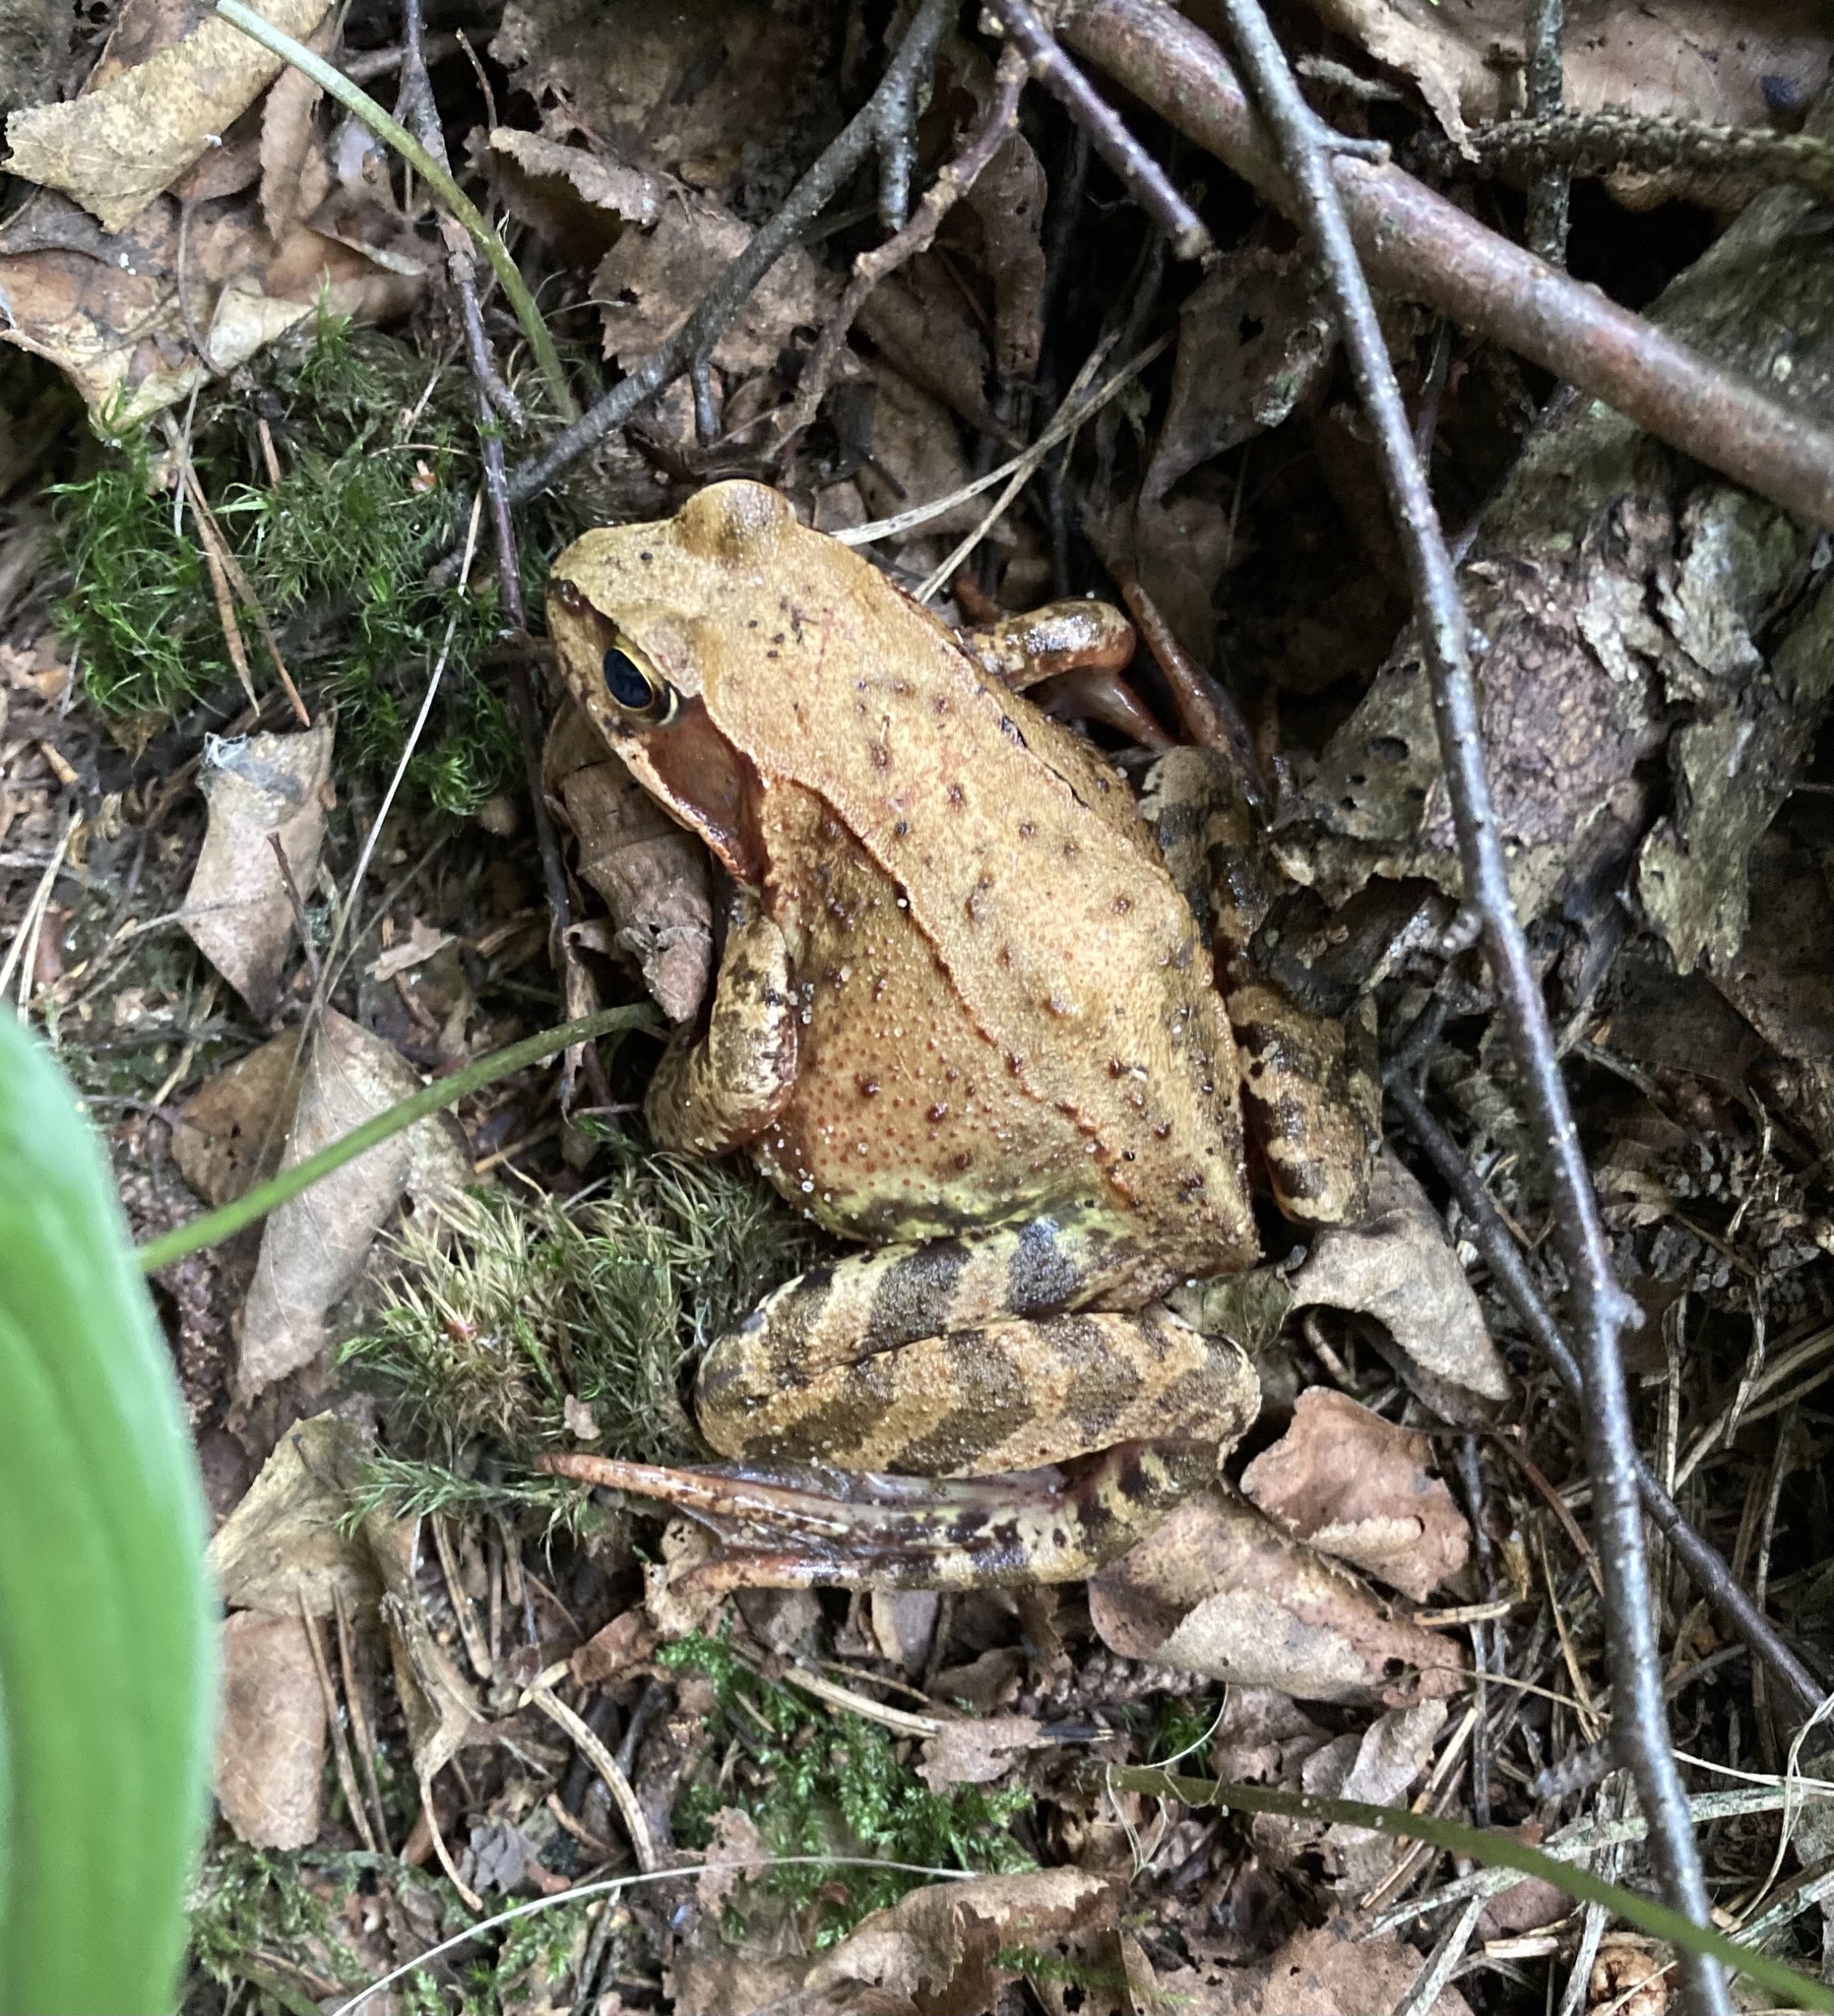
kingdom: Animalia
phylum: Chordata
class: Amphibia
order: Anura
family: Ranidae
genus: Rana
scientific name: Rana temporaria
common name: Common frog
